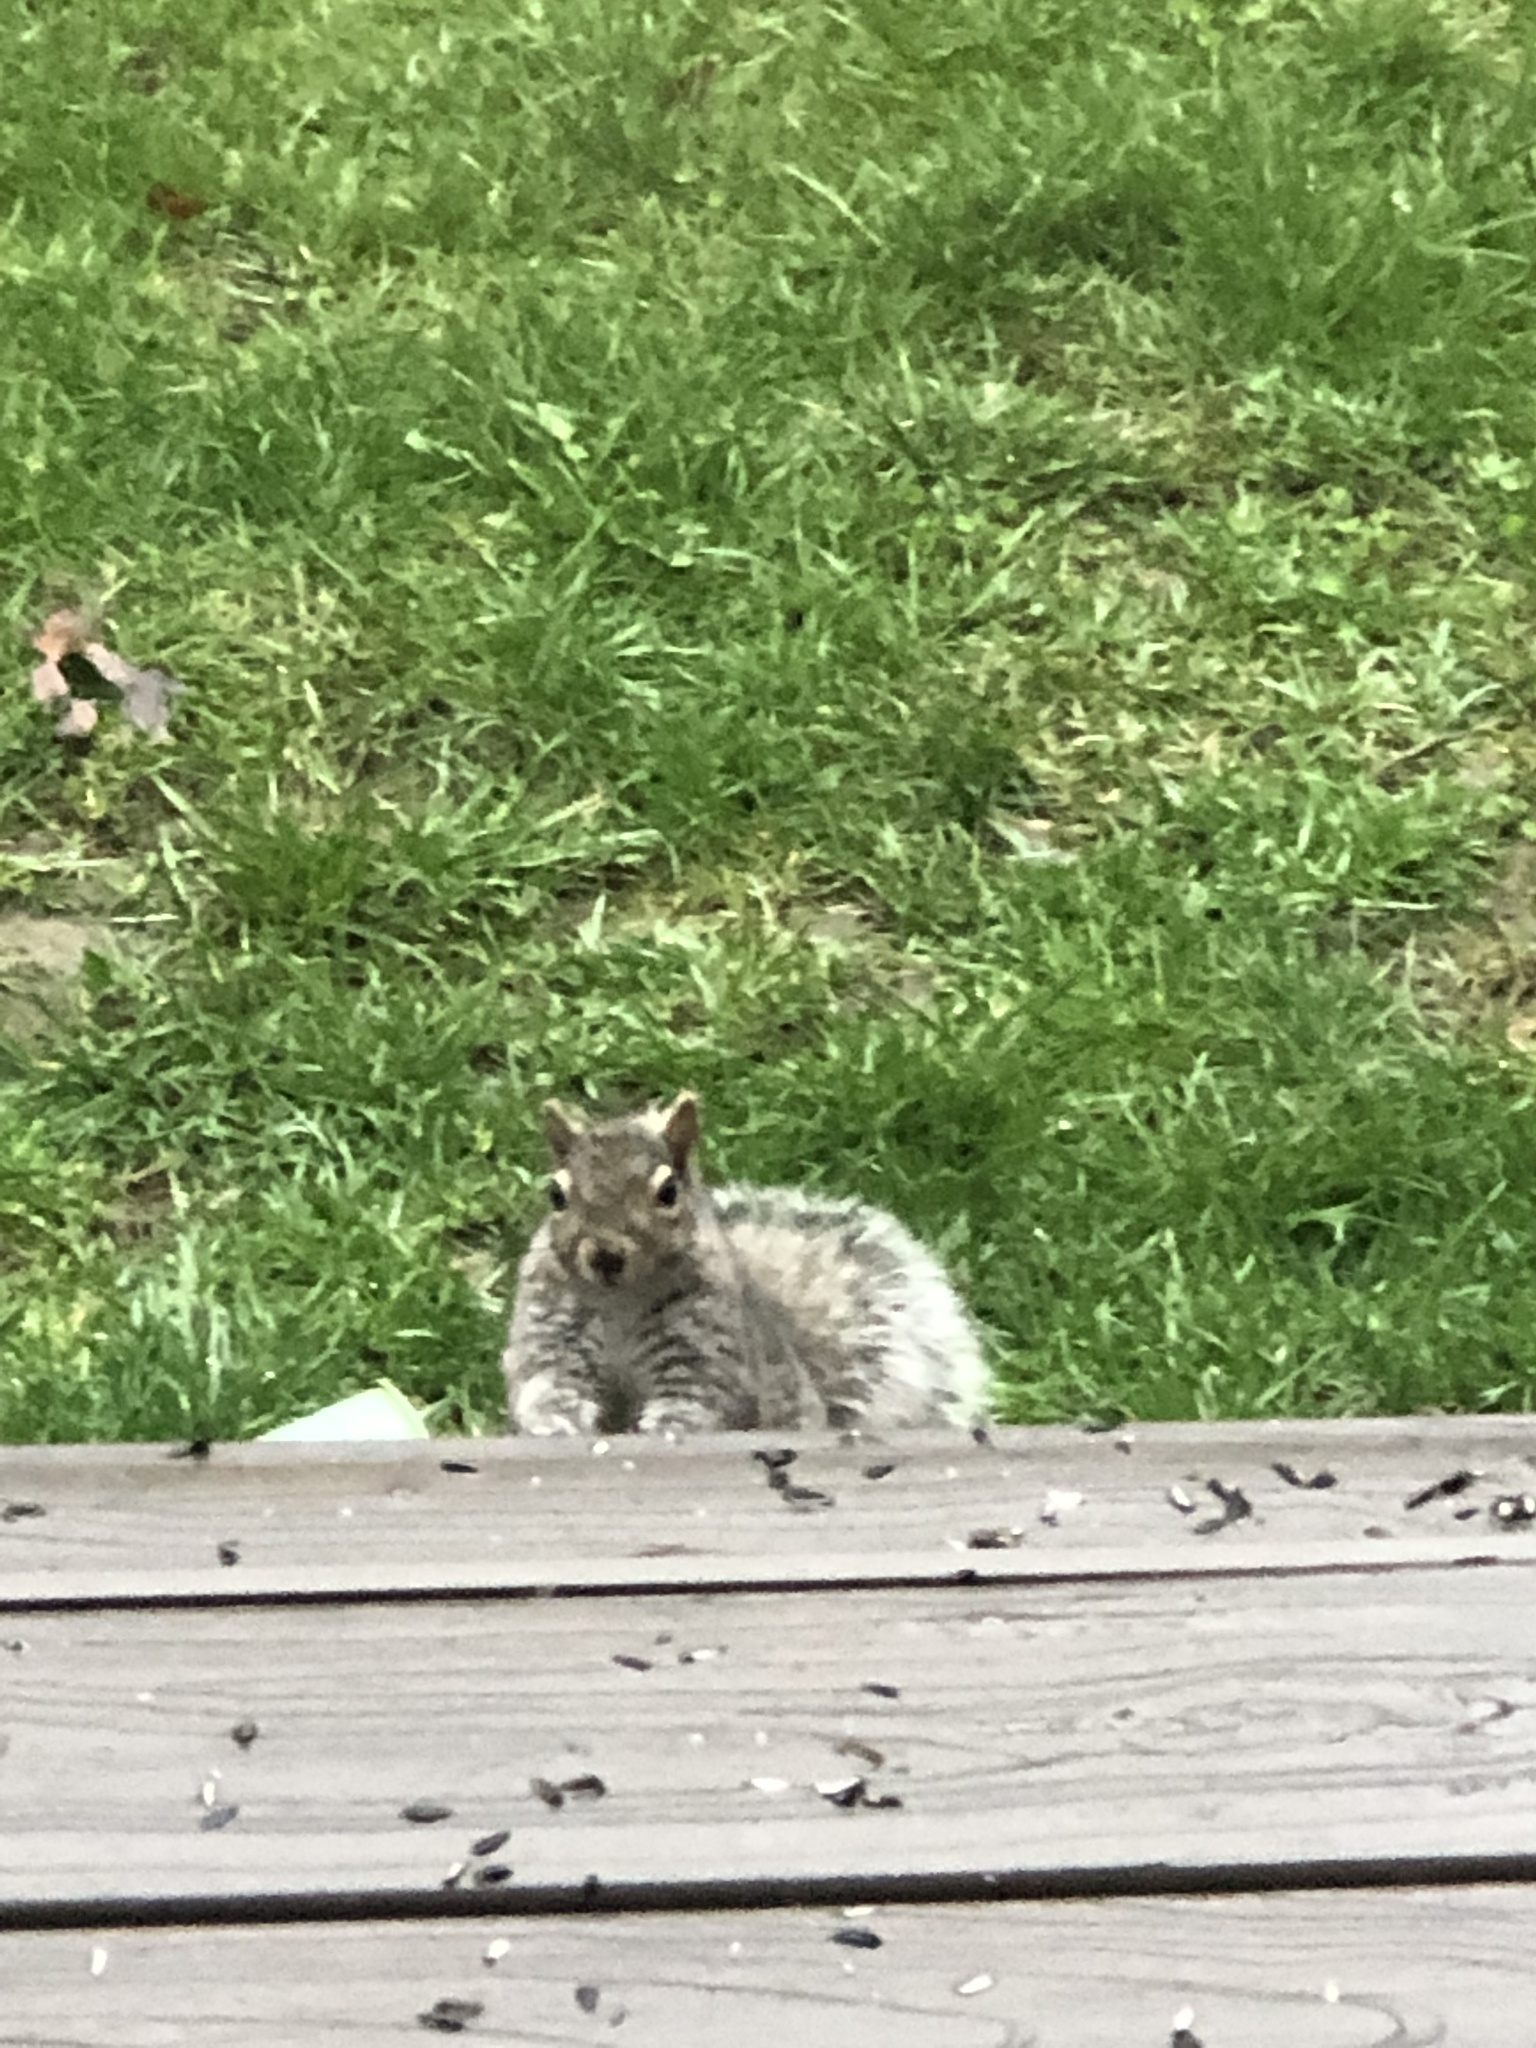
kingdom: Animalia
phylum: Chordata
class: Mammalia
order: Rodentia
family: Sciuridae
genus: Sciurus
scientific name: Sciurus carolinensis
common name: Eastern gray squirrel
